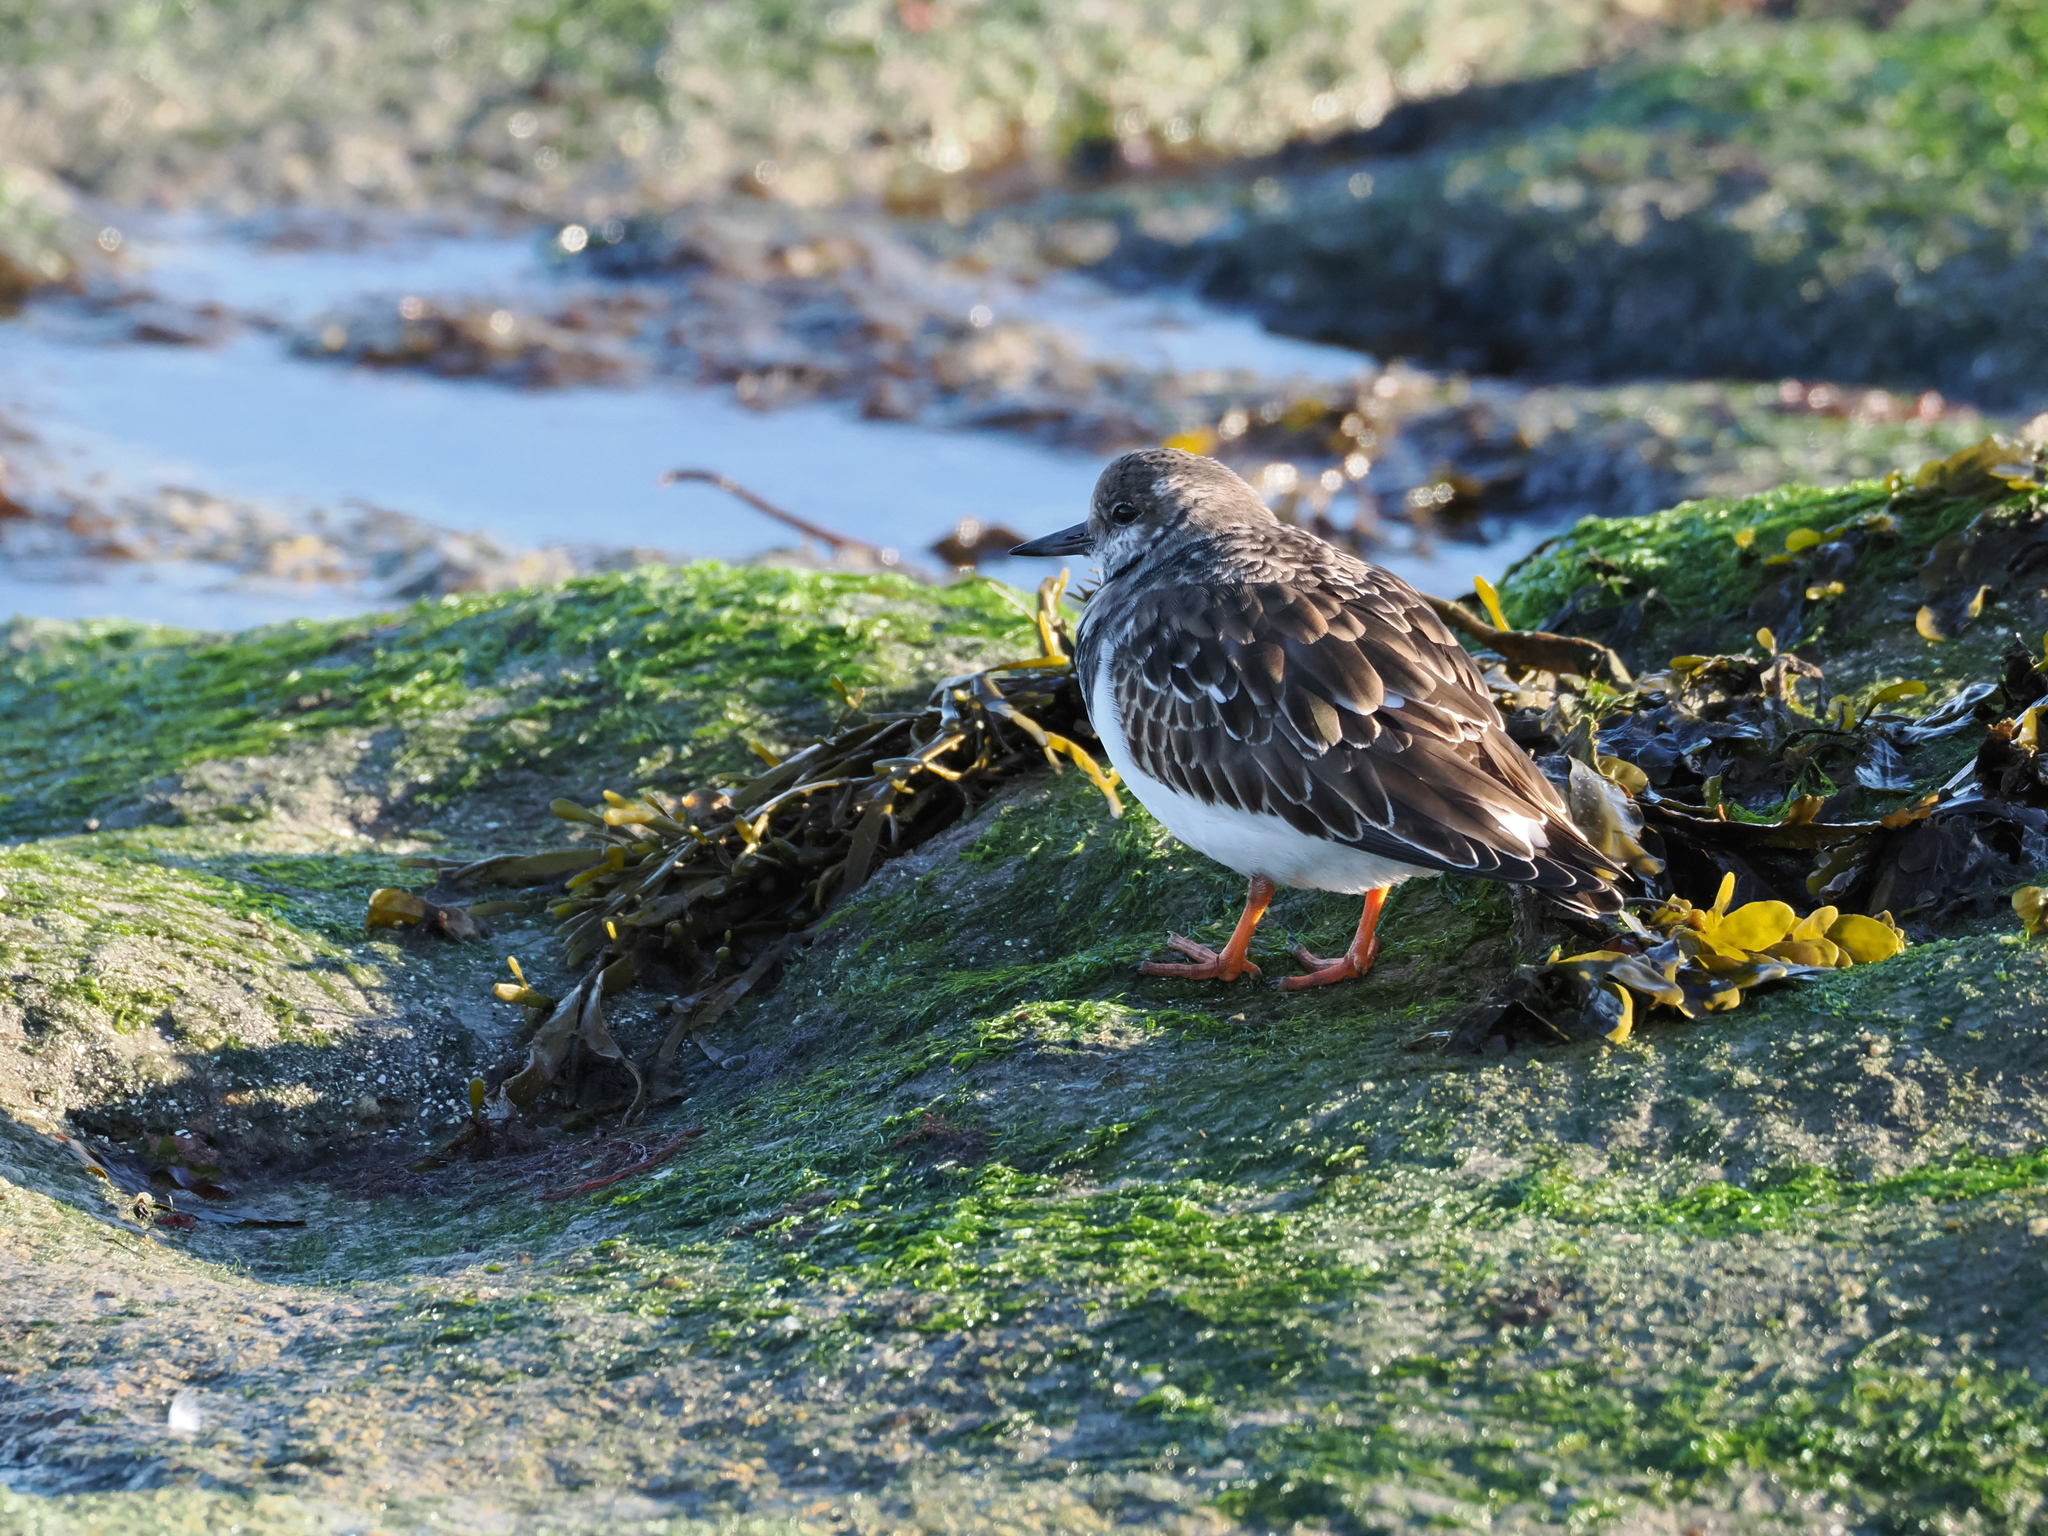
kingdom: Animalia
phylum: Chordata
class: Aves
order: Charadriiformes
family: Scolopacidae
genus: Arenaria
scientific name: Arenaria interpres
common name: Ruddy turnstone
